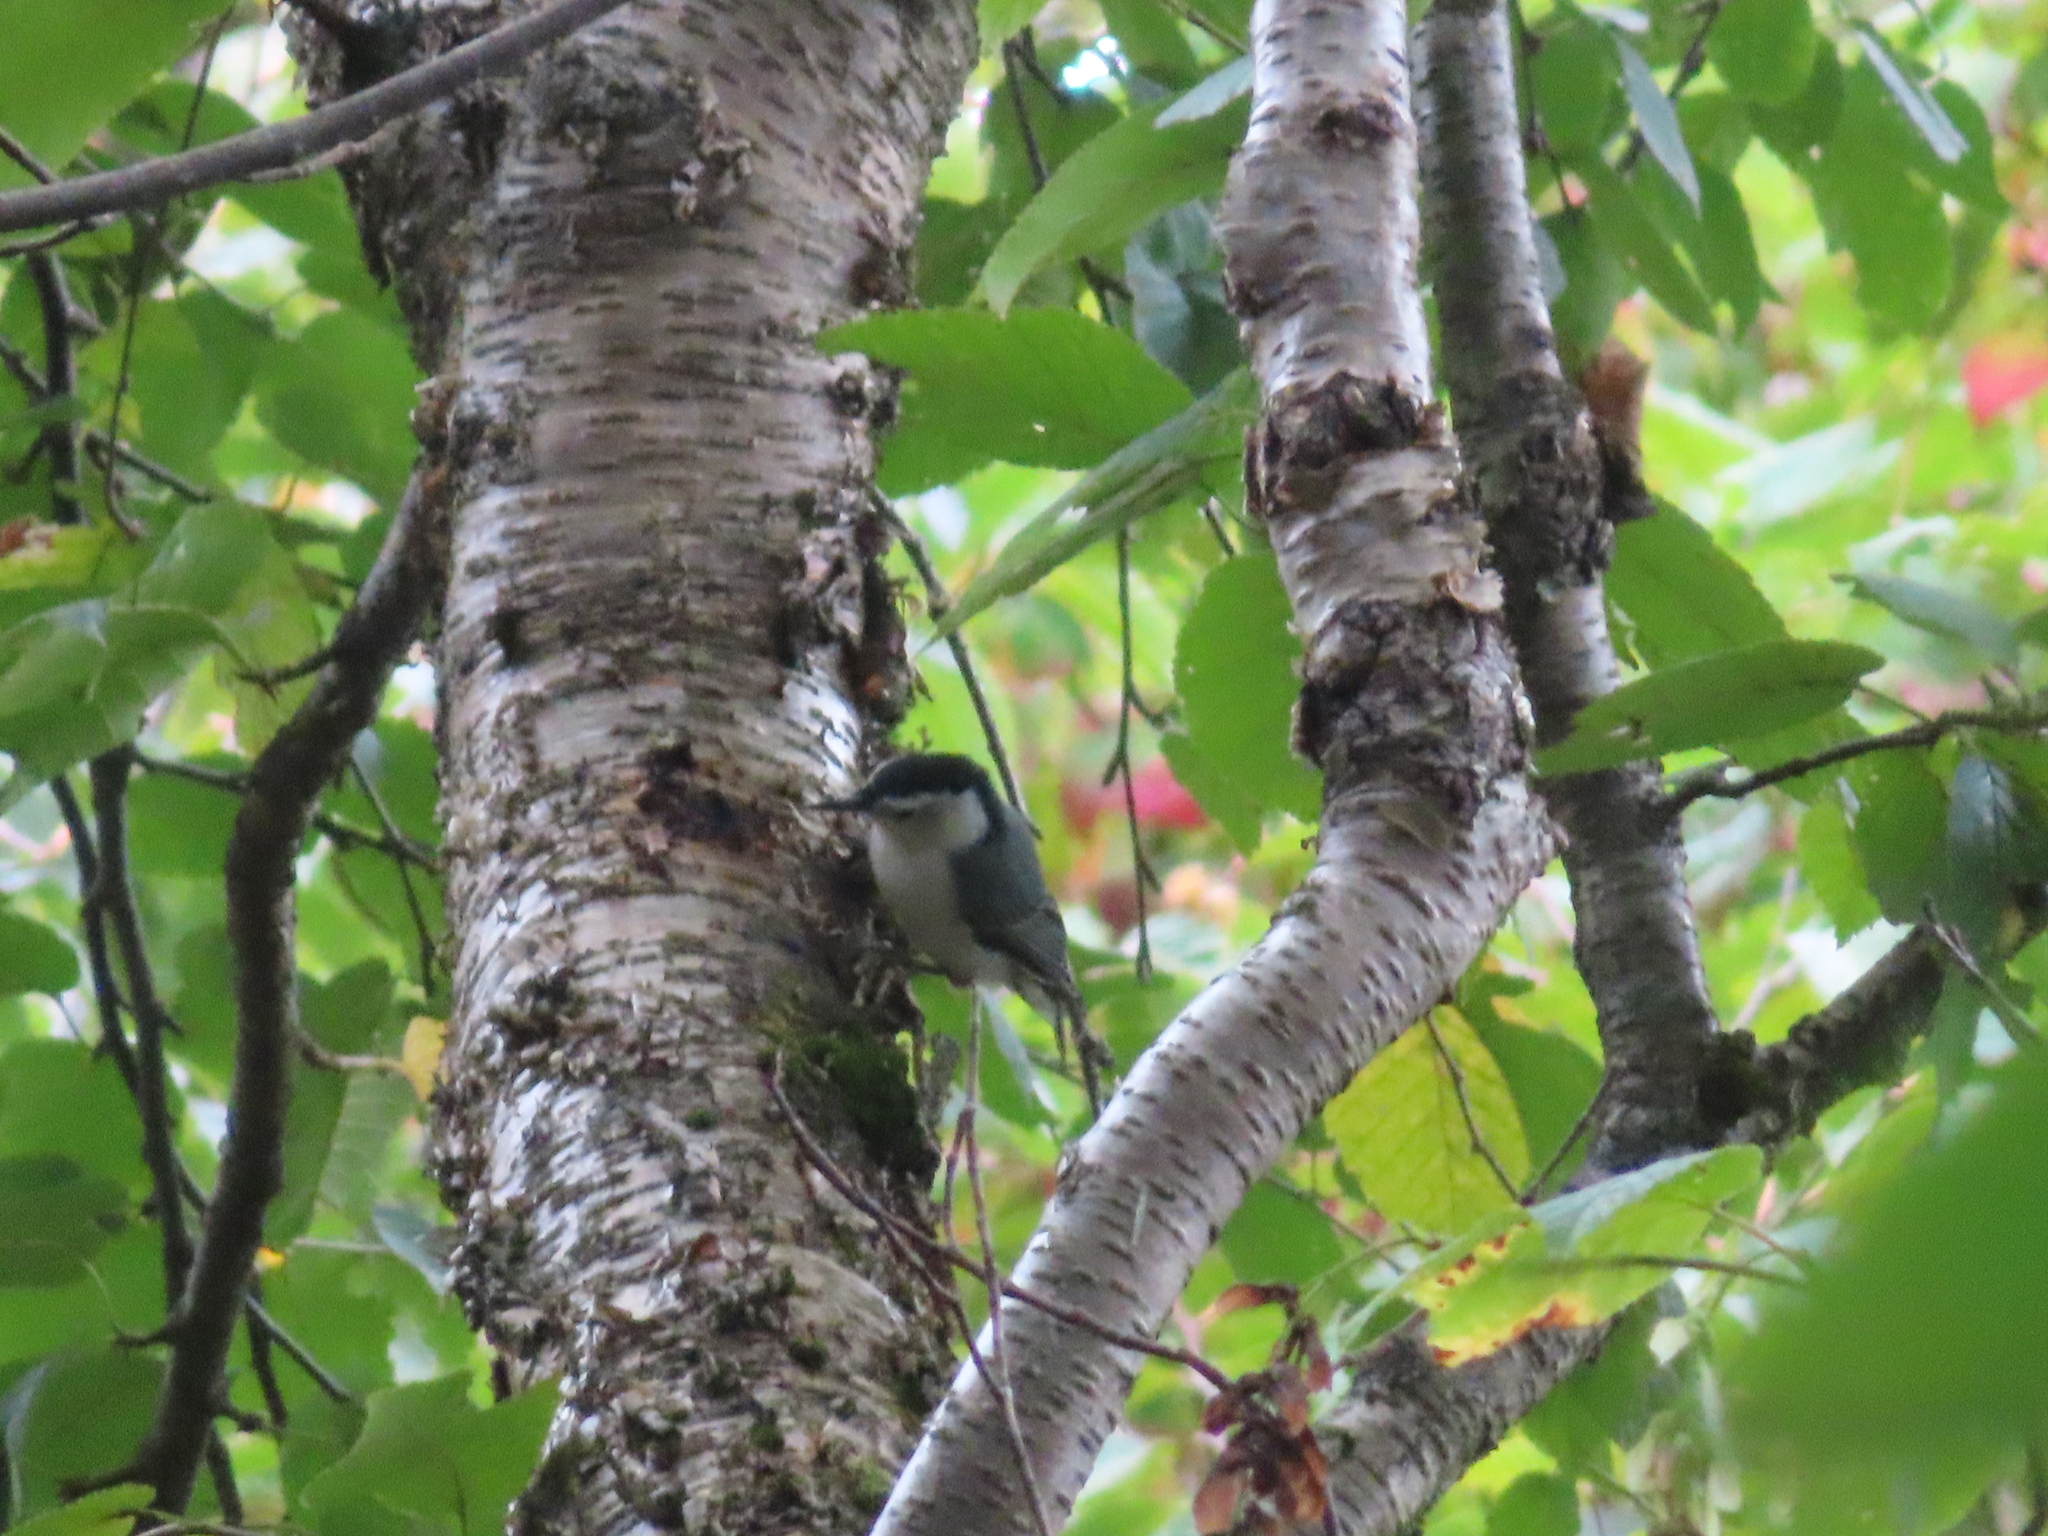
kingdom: Animalia
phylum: Chordata
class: Aves
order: Passeriformes
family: Sittidae
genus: Sitta
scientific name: Sitta carolinensis
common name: White-breasted nuthatch
